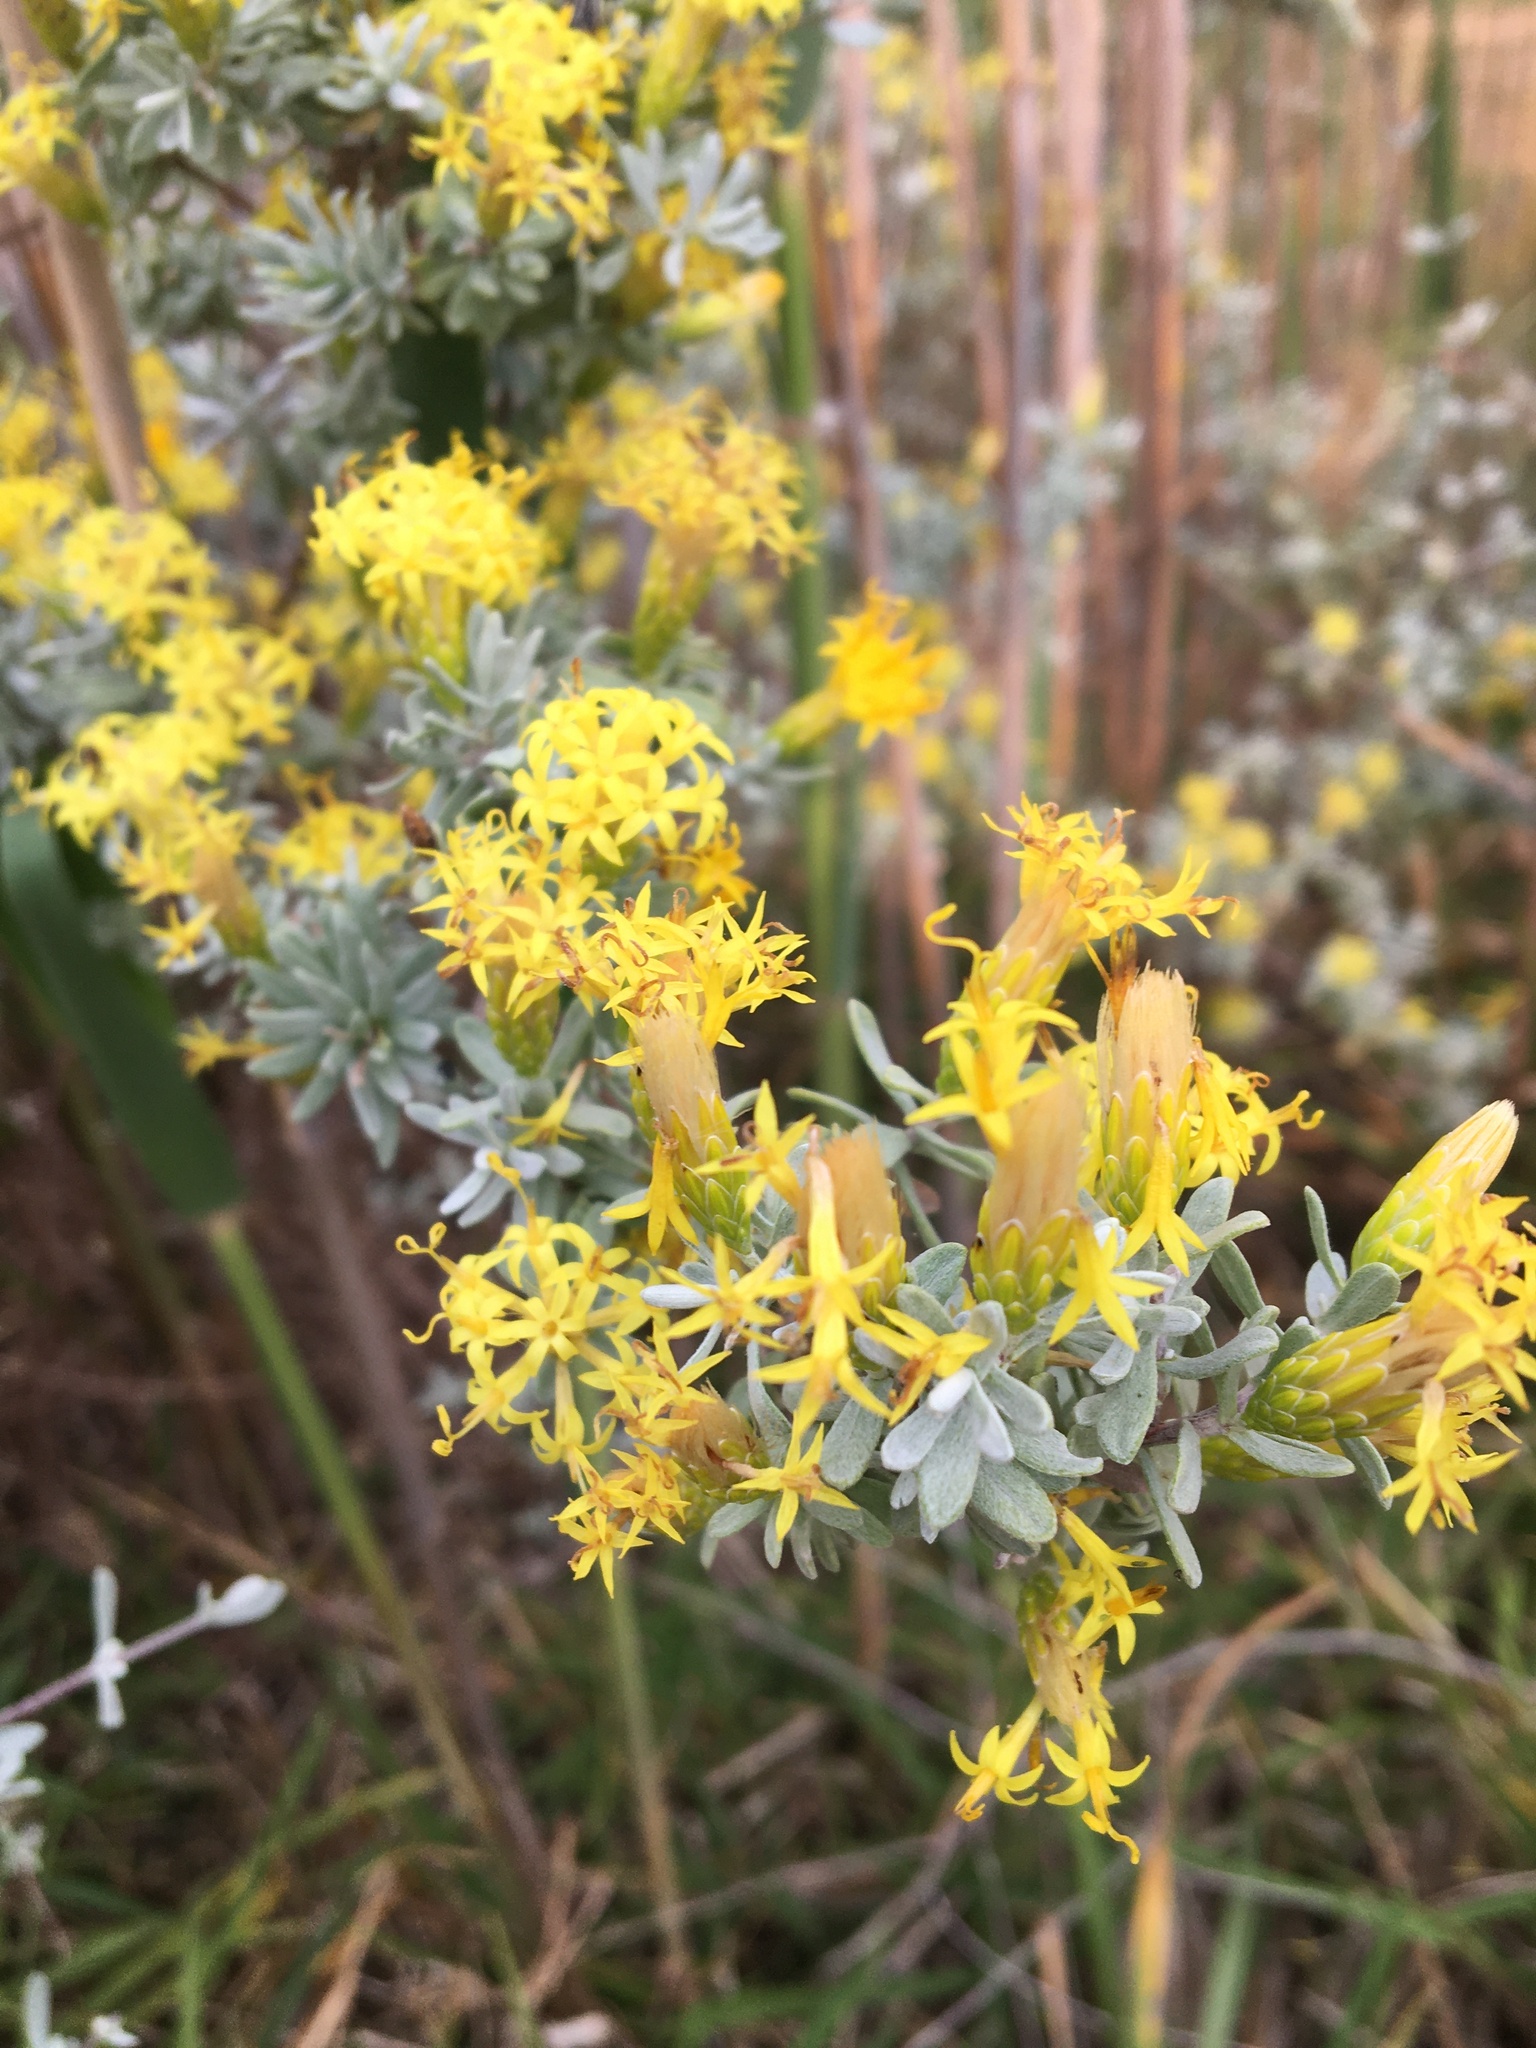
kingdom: Plantae
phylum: Tracheophyta
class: Magnoliopsida
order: Asterales
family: Asteraceae
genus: Pteronia
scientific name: Pteronia incana
